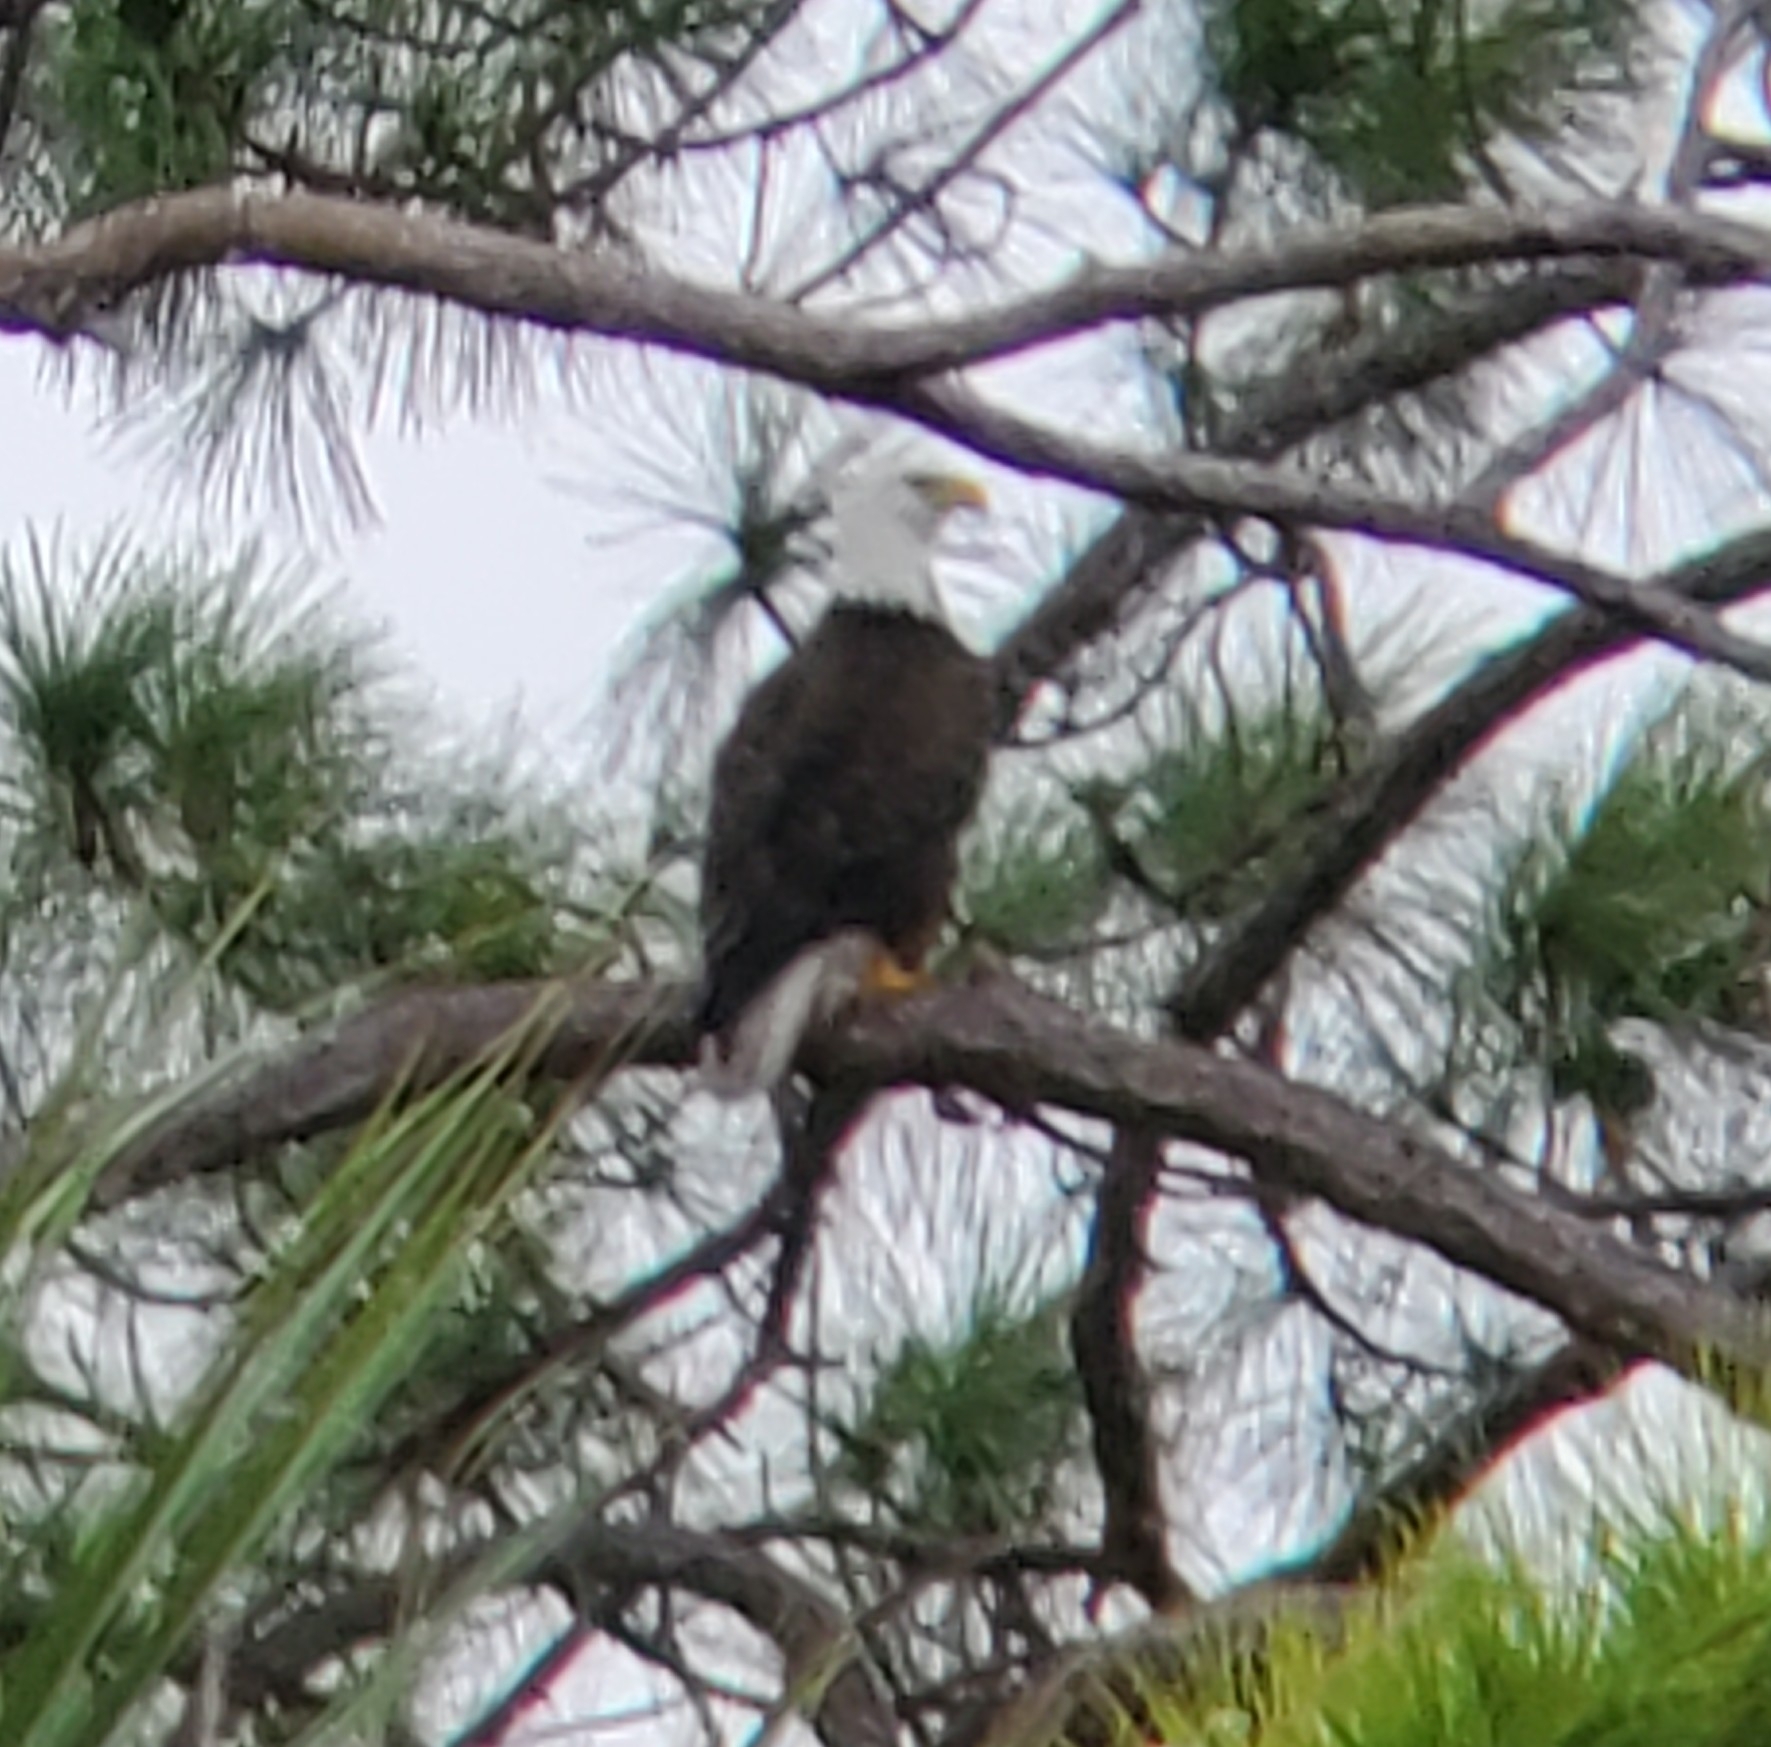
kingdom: Animalia
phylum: Chordata
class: Aves
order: Accipitriformes
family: Accipitridae
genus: Haliaeetus
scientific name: Haliaeetus leucocephalus
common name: Bald eagle
